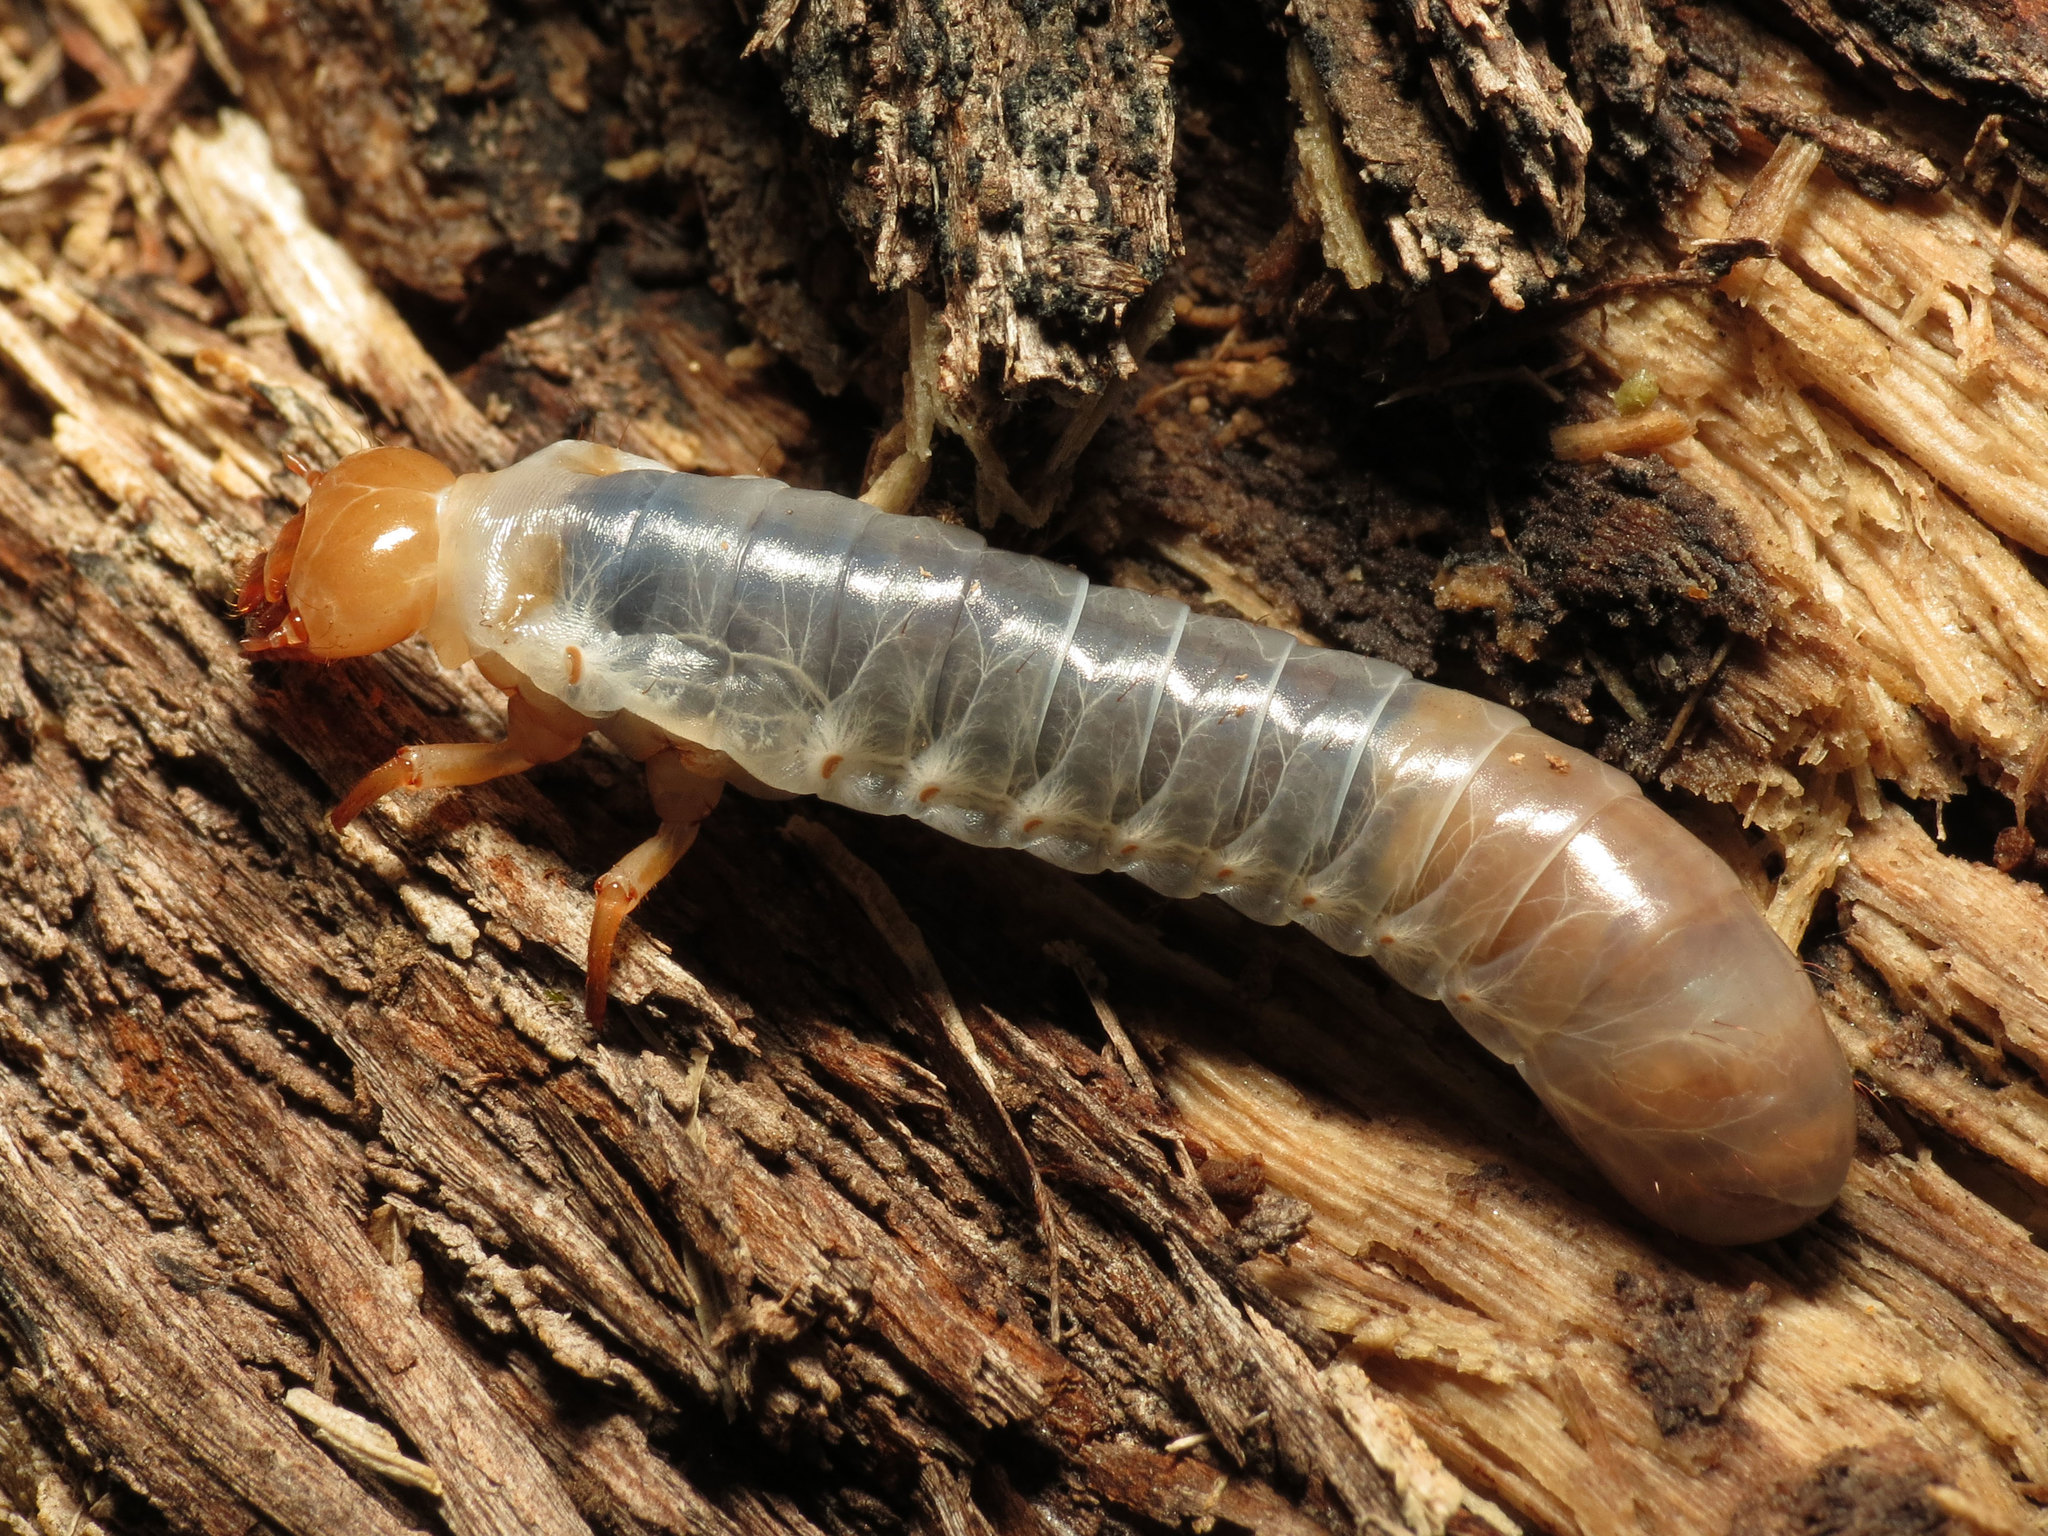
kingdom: Animalia
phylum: Arthropoda
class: Insecta
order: Coleoptera
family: Passalidae
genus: Odontotaenius
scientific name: Odontotaenius disjunctus
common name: Patent leather beetle
